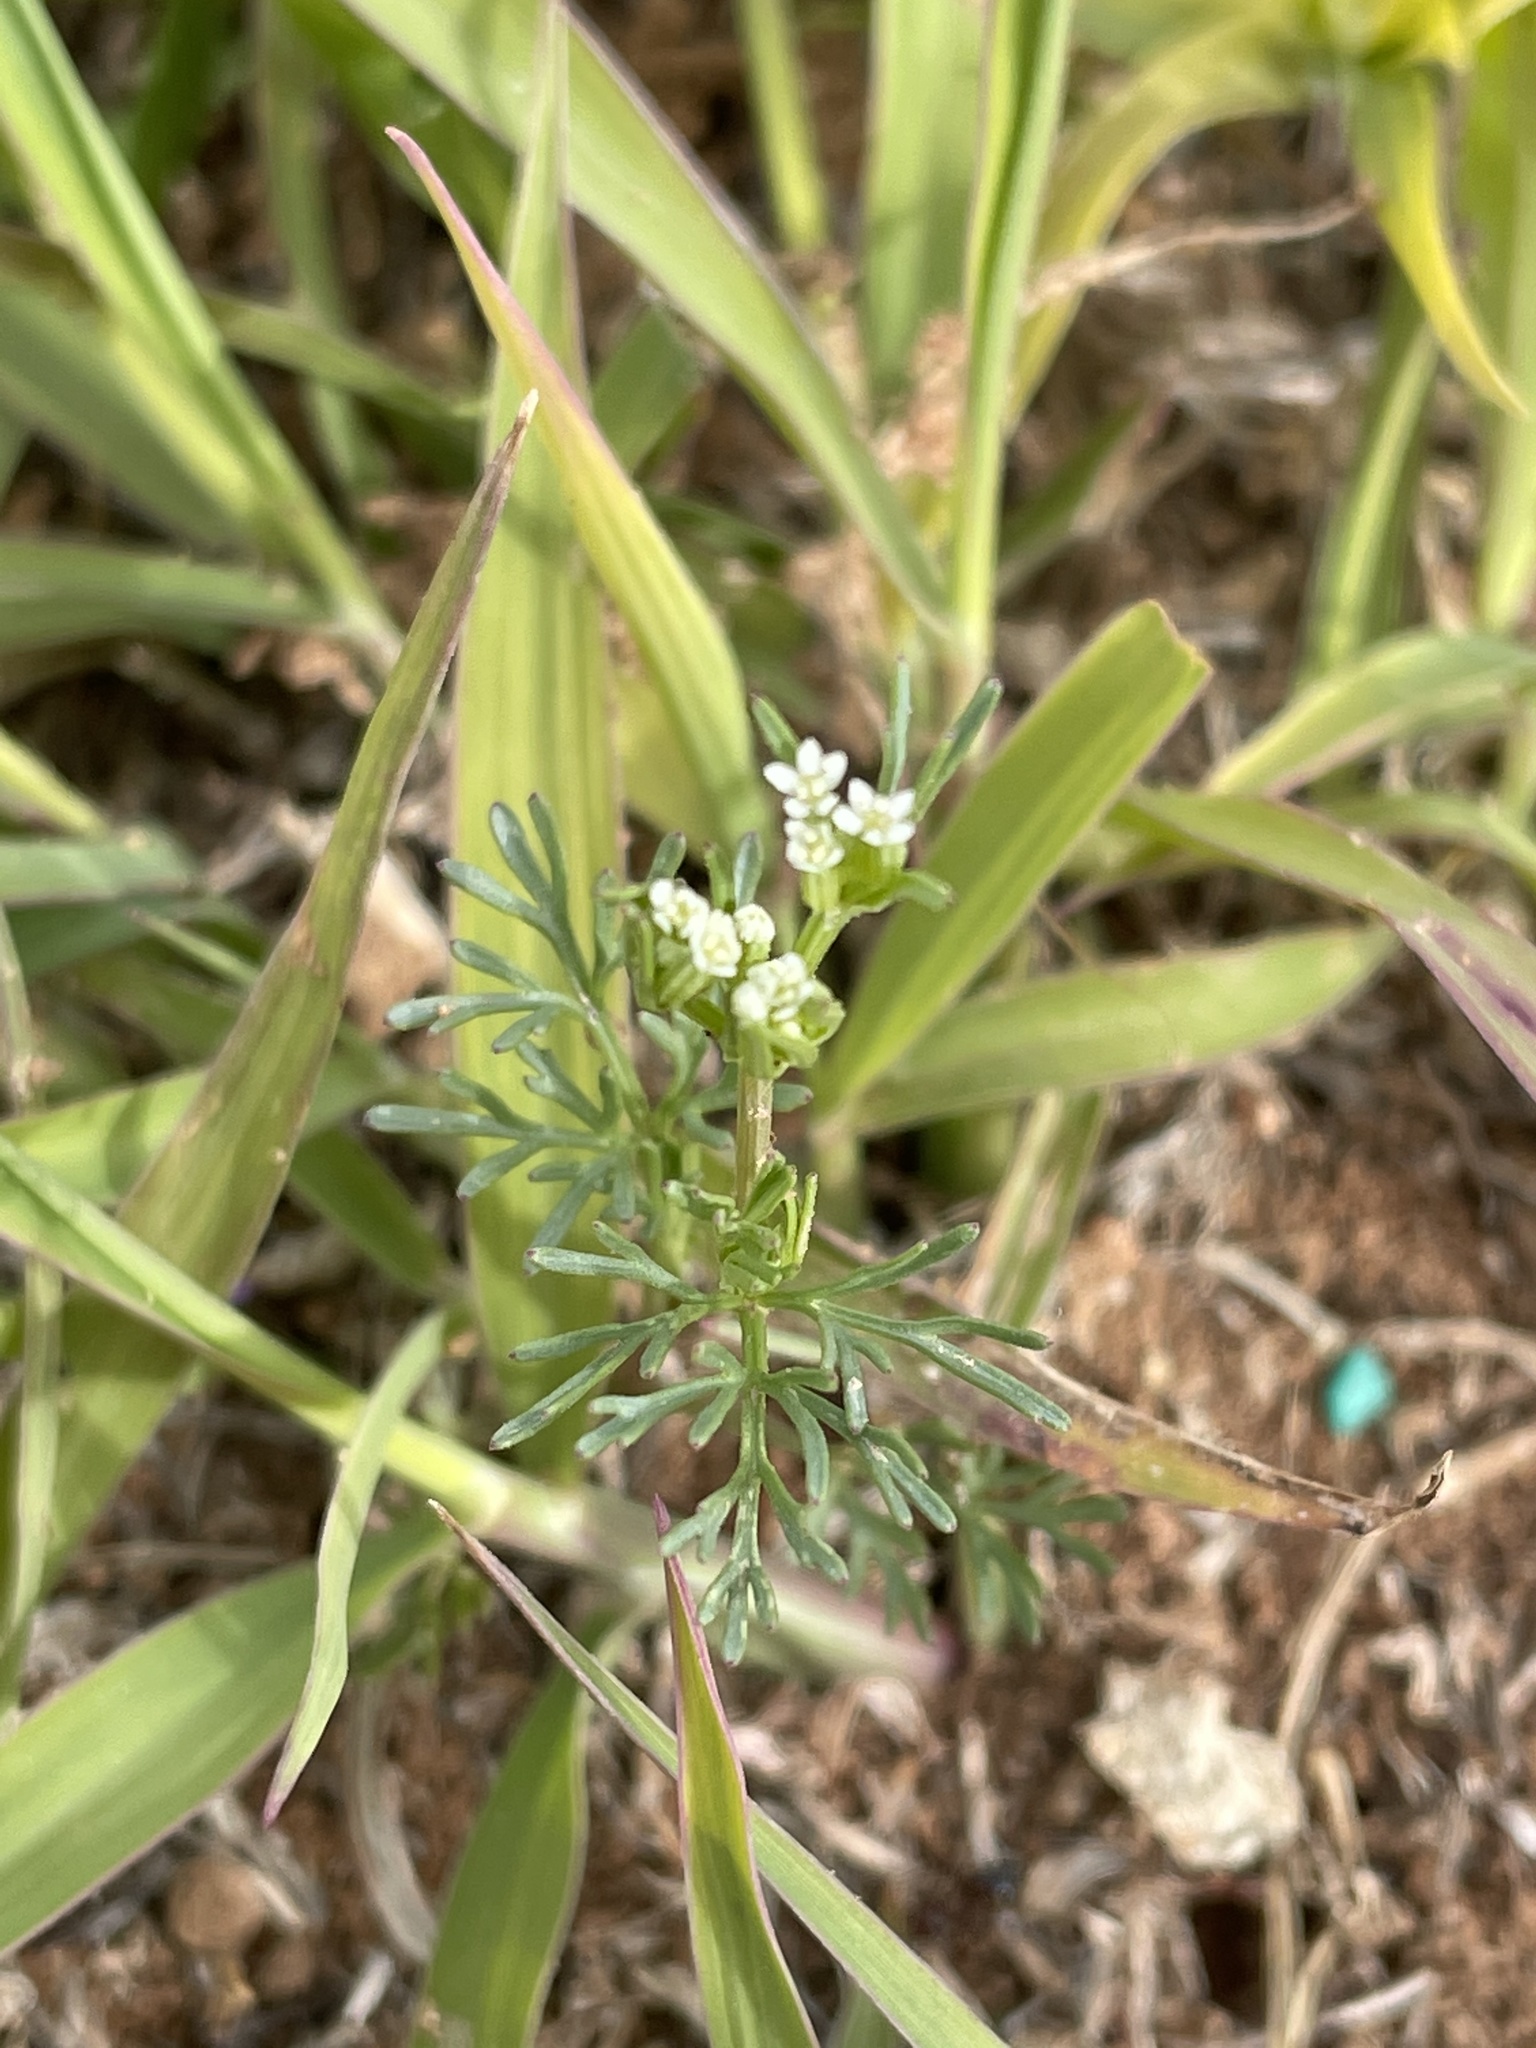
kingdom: Plantae
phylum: Tracheophyta
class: Magnoliopsida
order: Apiales
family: Apiaceae
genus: Ammoselinum
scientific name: Ammoselinum popei
